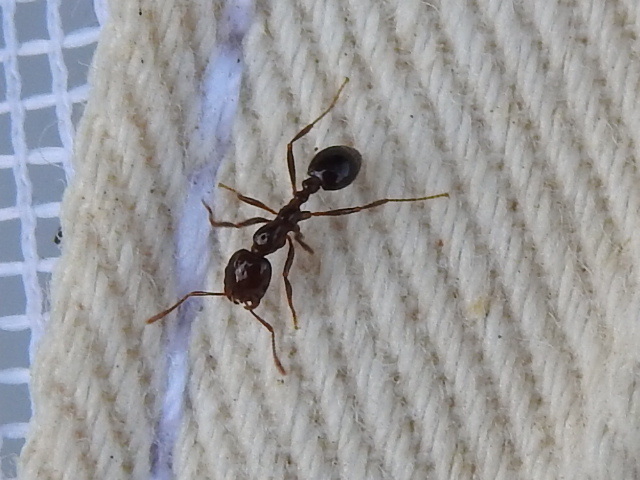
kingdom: Animalia
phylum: Arthropoda
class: Insecta
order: Hymenoptera
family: Formicidae
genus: Solenopsis
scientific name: Solenopsis invicta
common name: Red imported fire ant
